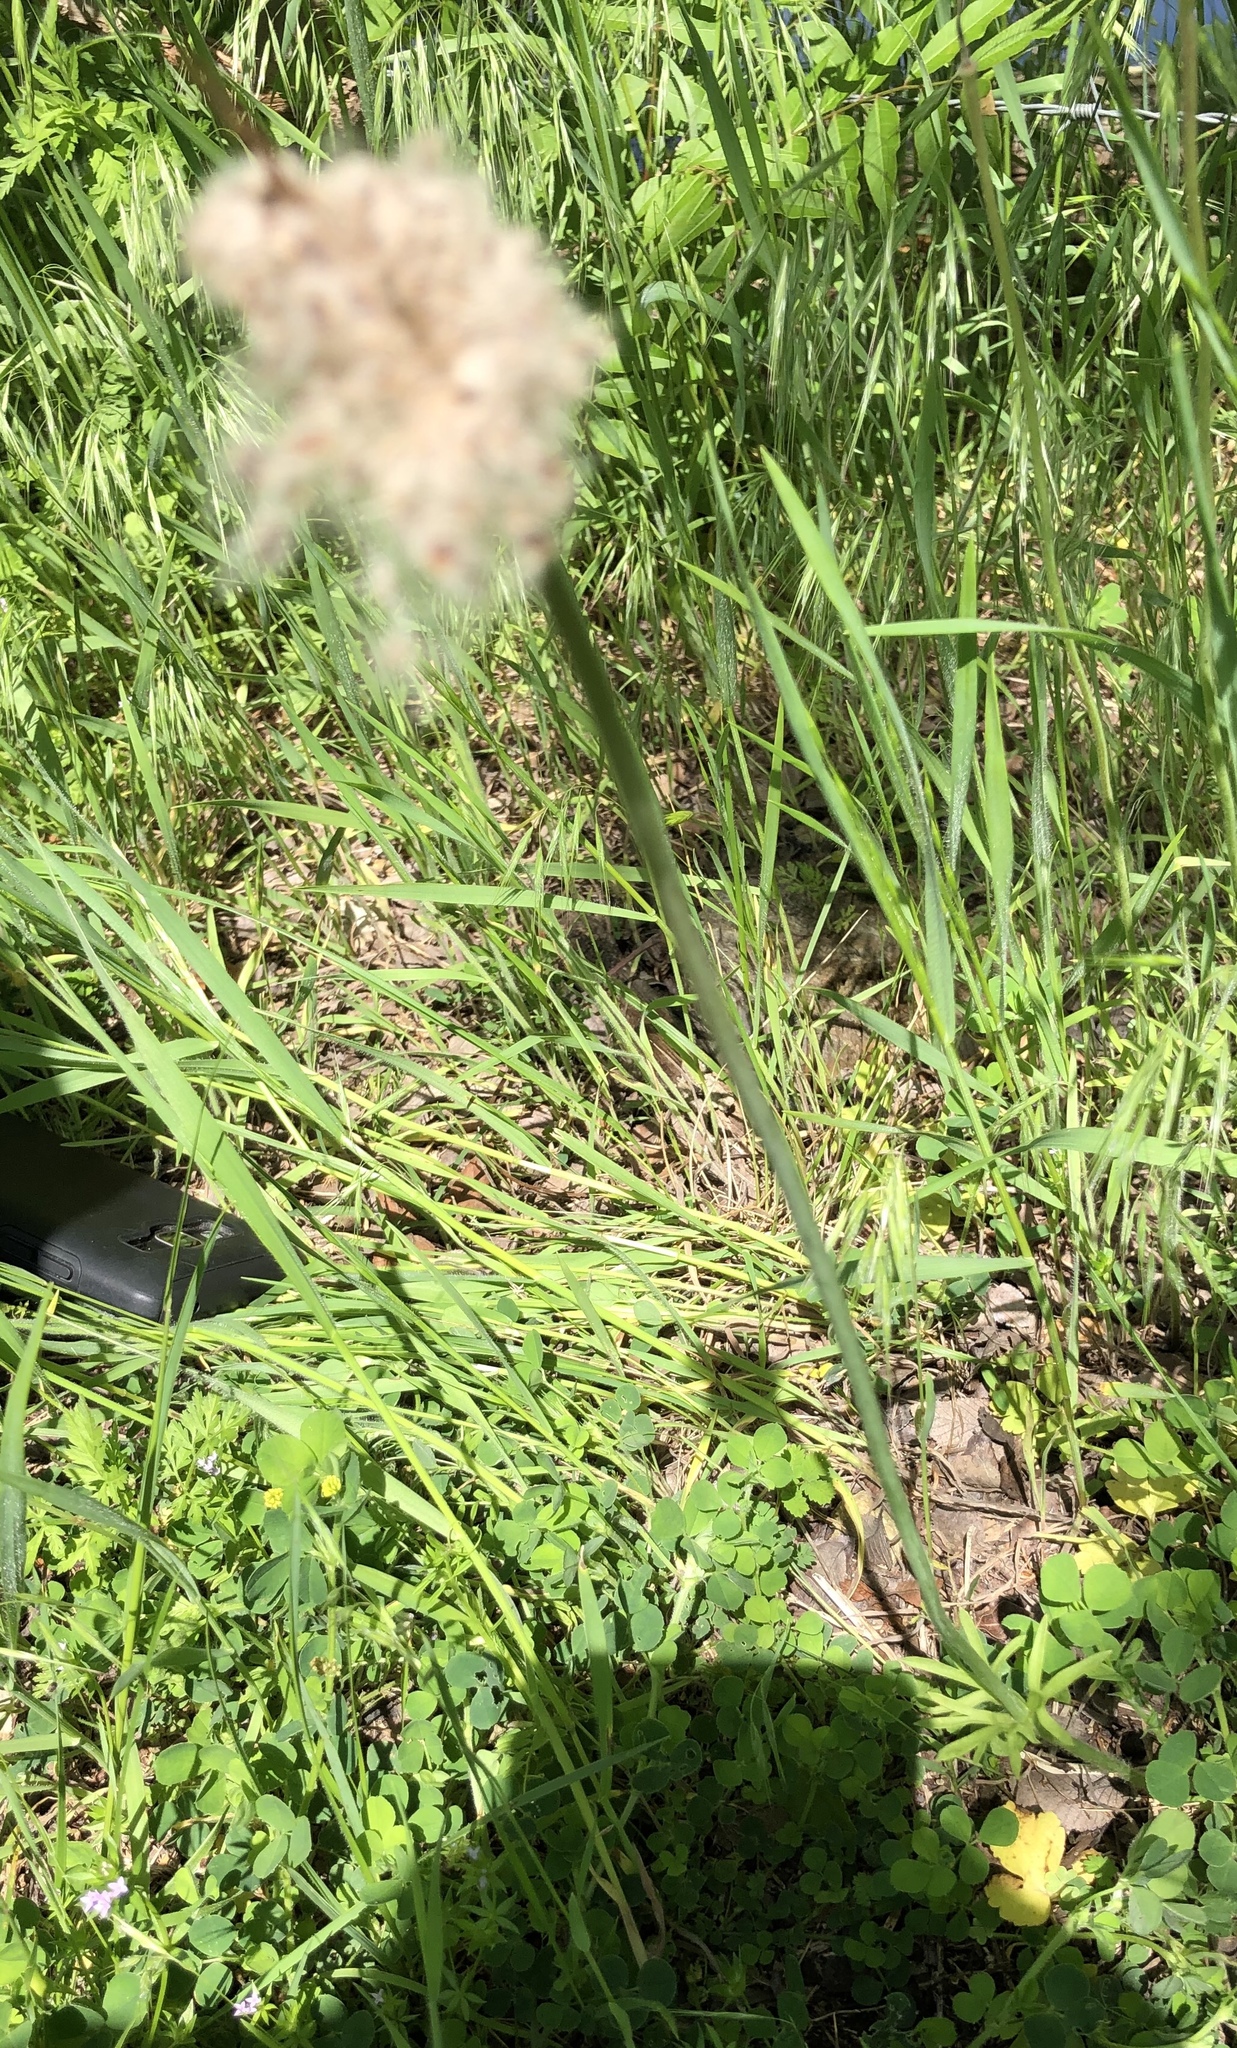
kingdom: Plantae
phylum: Tracheophyta
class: Magnoliopsida
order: Ranunculales
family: Ranunculaceae
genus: Anemone
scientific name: Anemone berlandieri
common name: Ten-petal anemone
